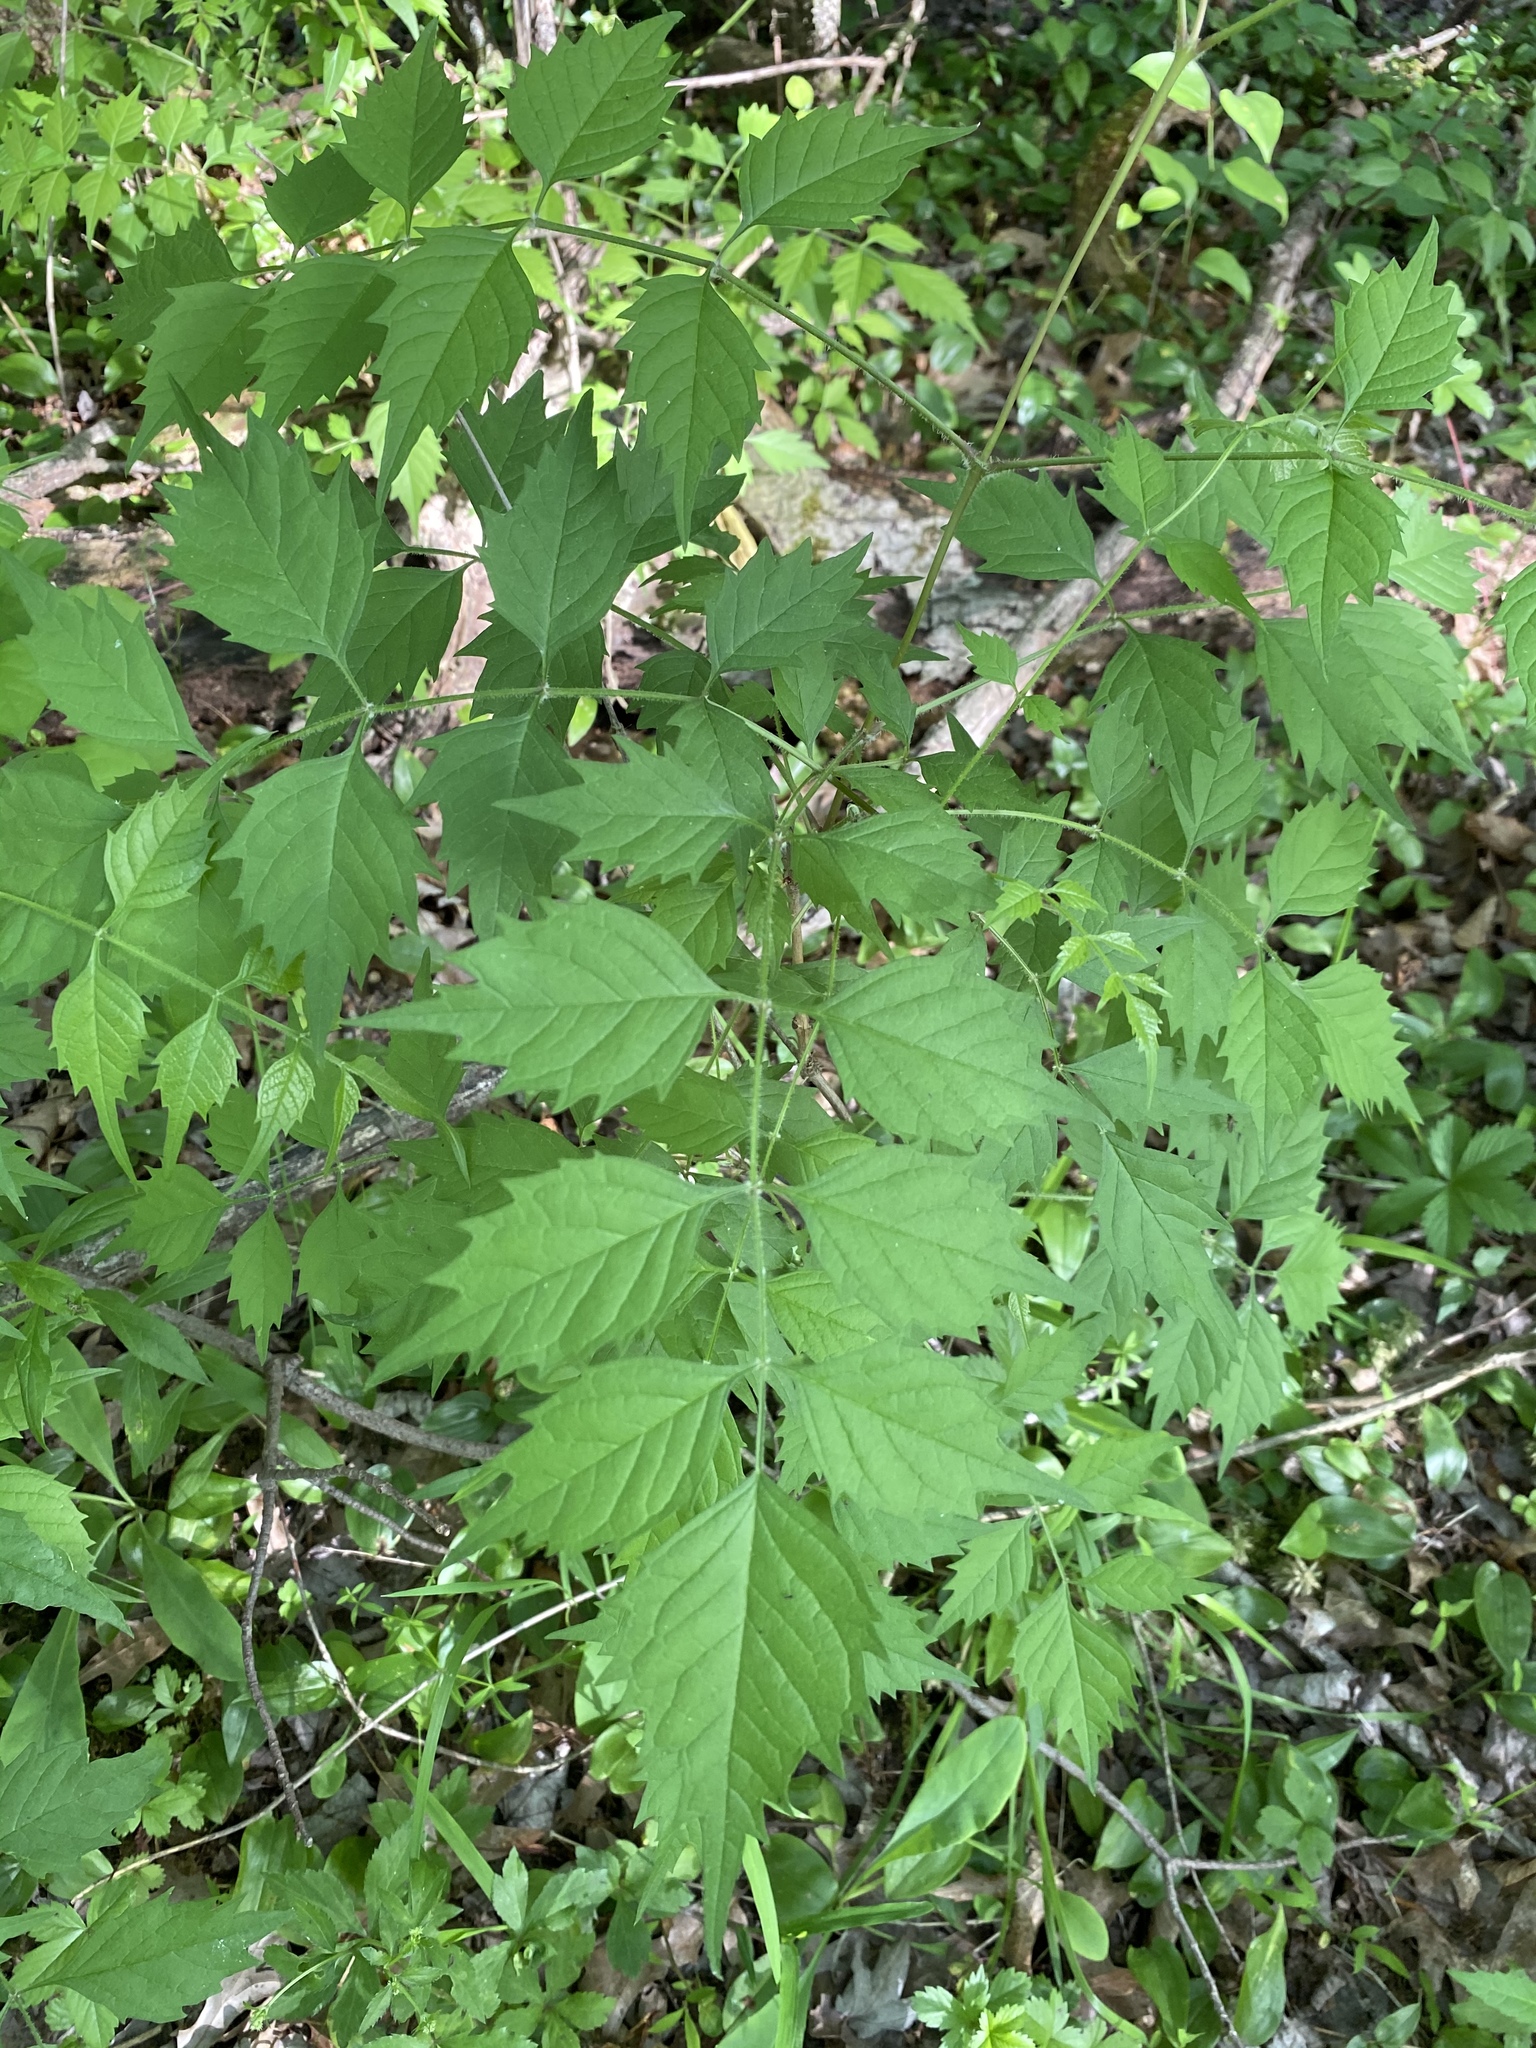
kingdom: Plantae
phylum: Tracheophyta
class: Magnoliopsida
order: Lamiales
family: Bignoniaceae
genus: Campsis
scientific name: Campsis radicans
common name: Trumpet-creeper
